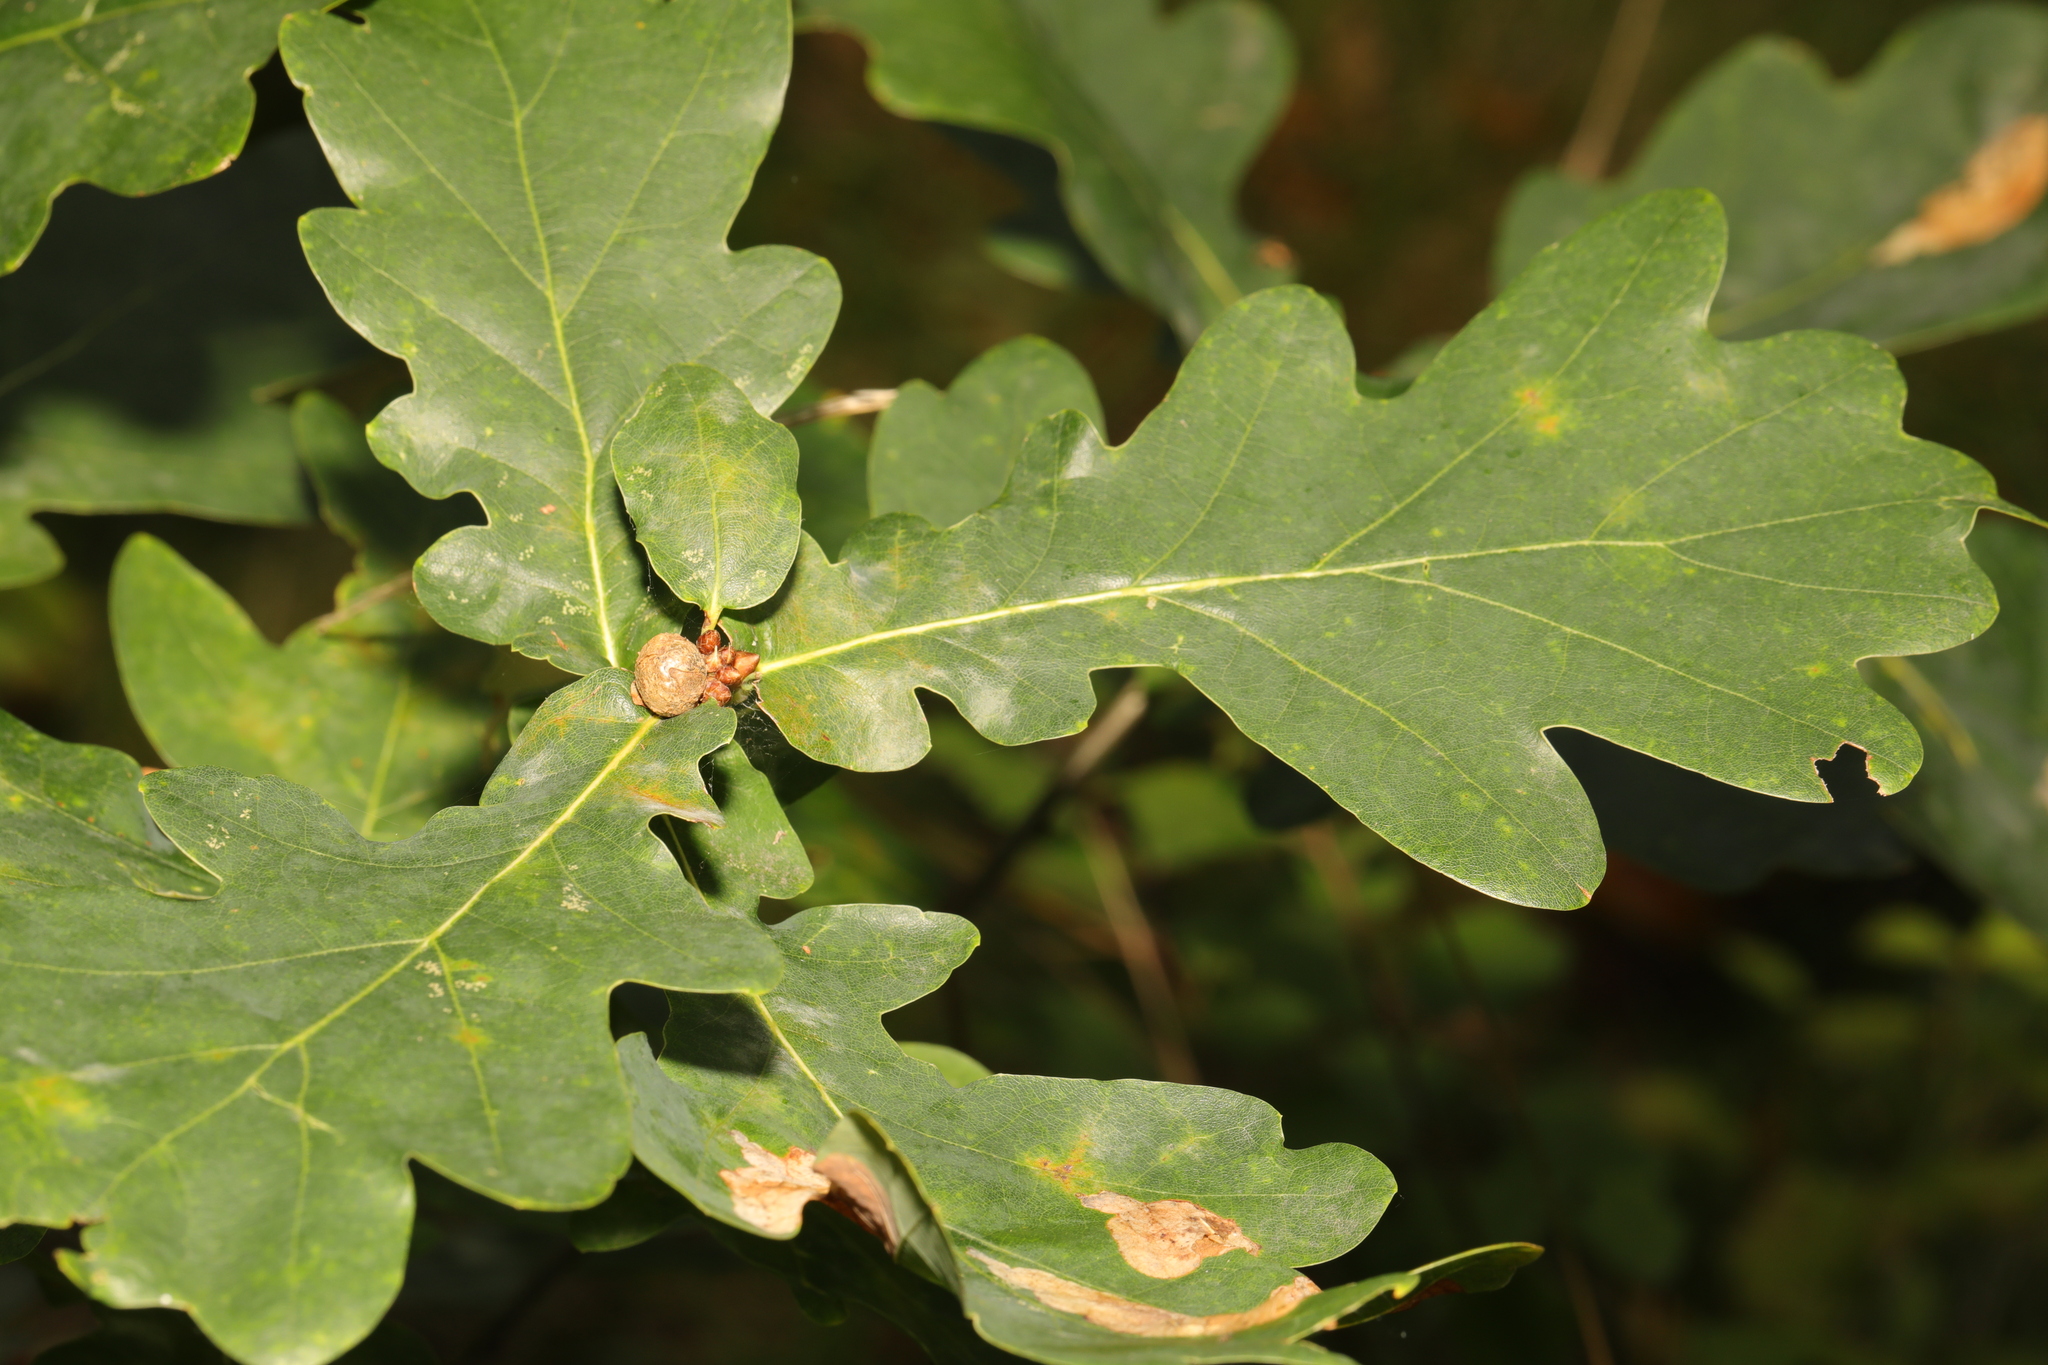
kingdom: Plantae
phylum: Tracheophyta
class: Magnoliopsida
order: Fagales
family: Fagaceae
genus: Quercus
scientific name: Quercus robur
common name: Pedunculate oak
